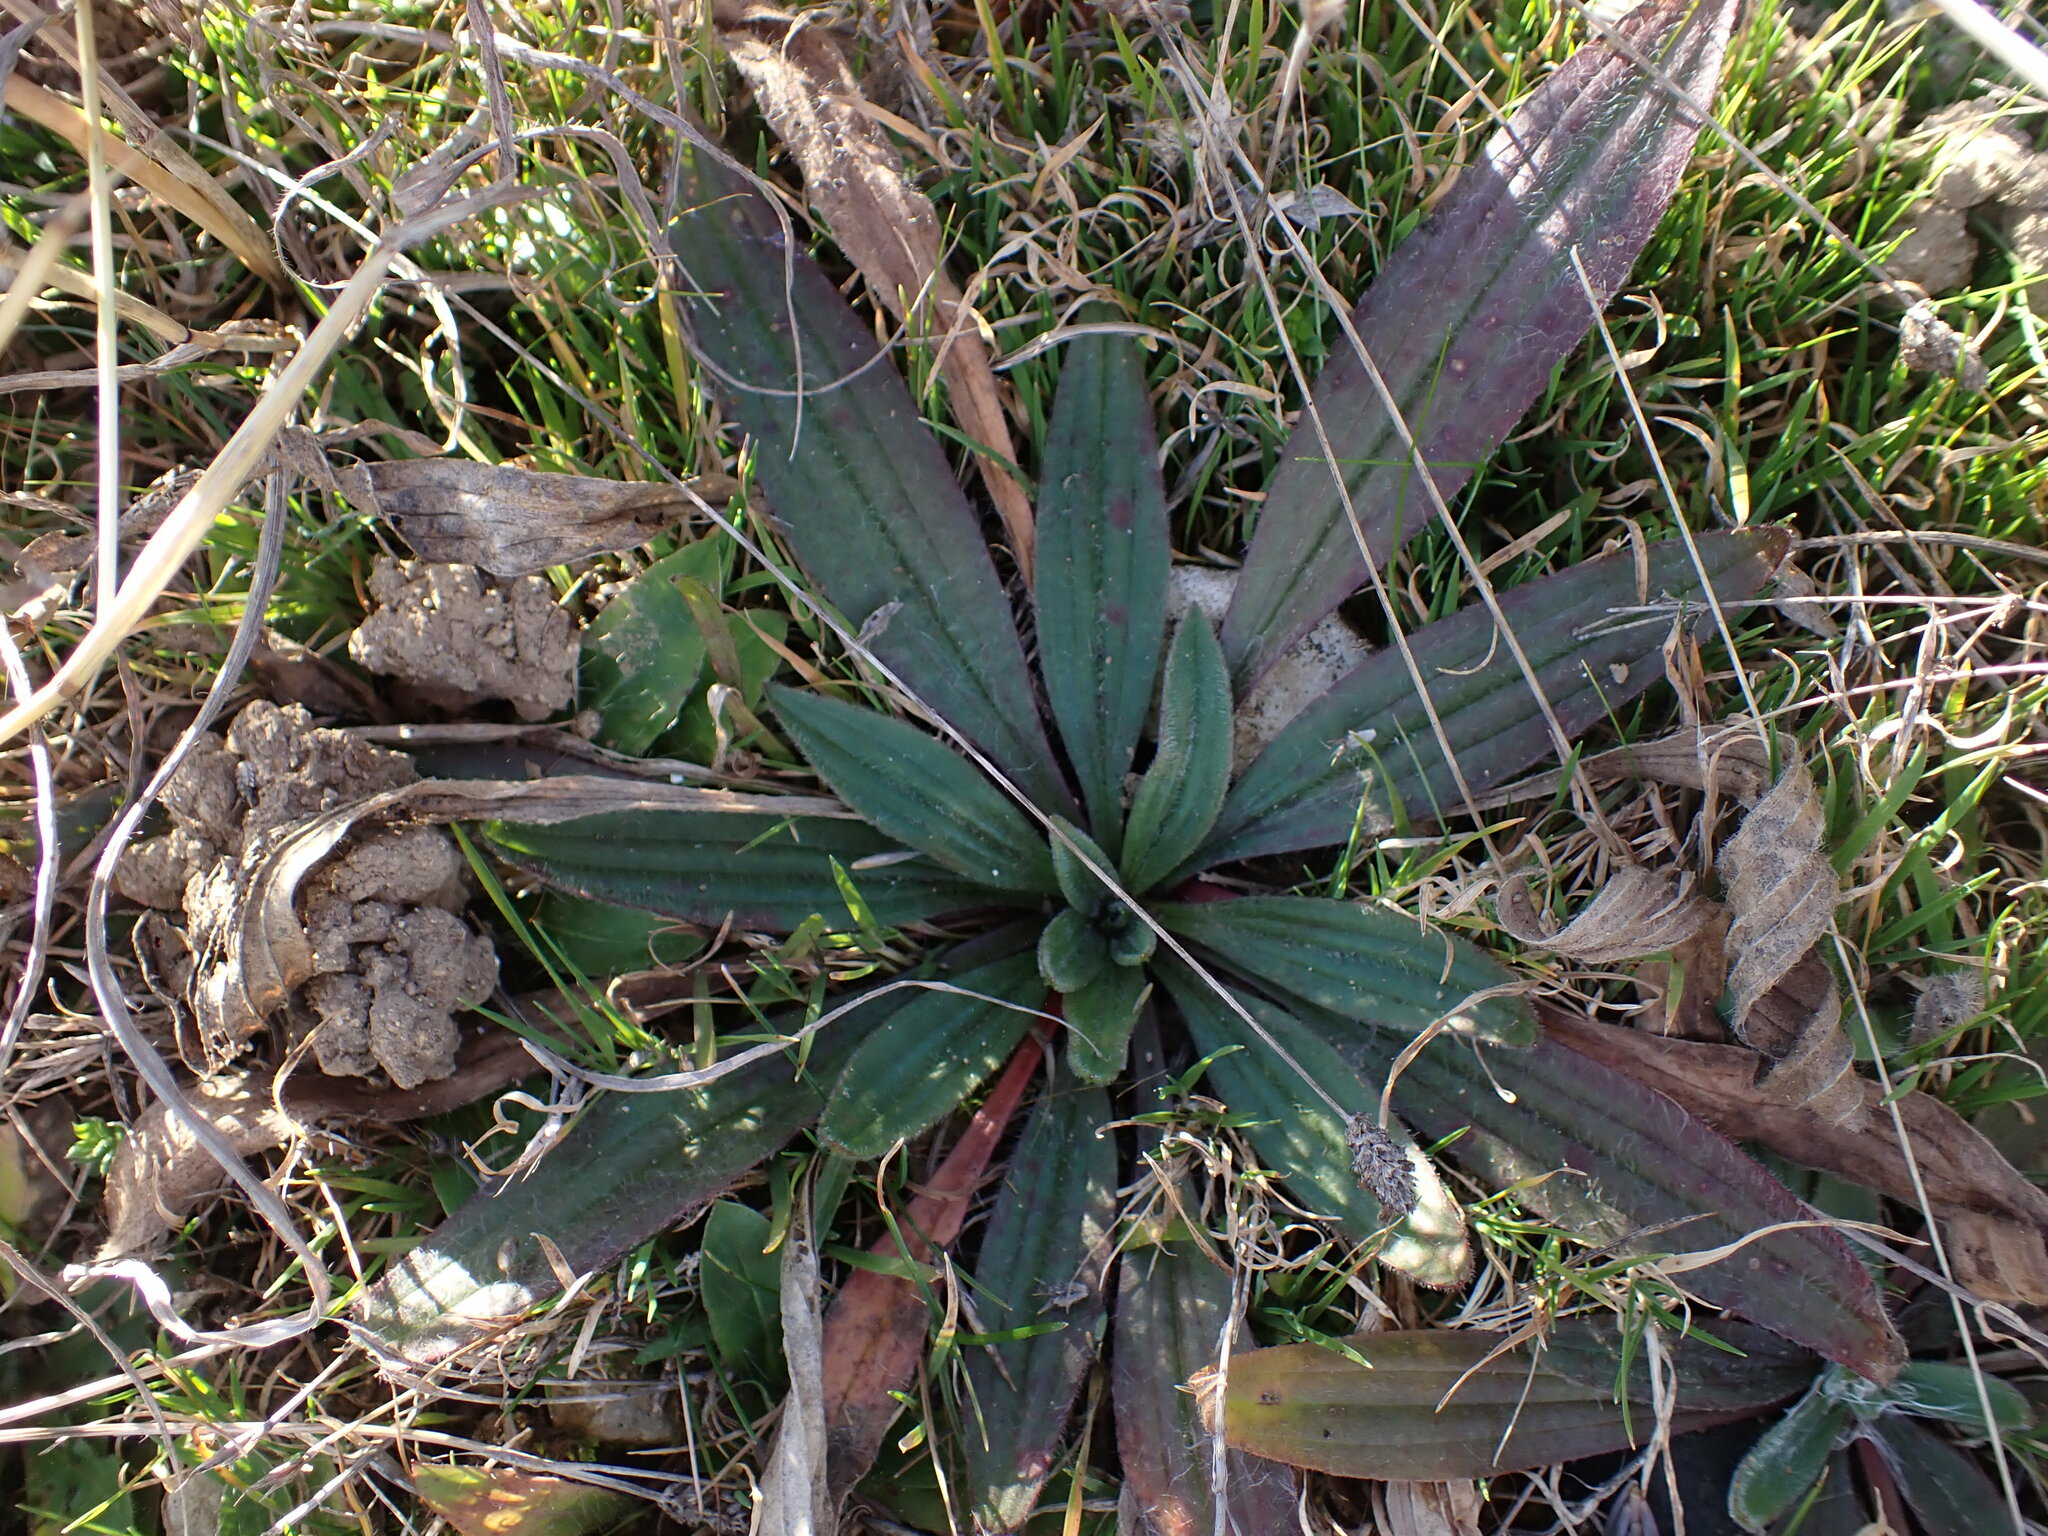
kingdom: Plantae
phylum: Tracheophyta
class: Magnoliopsida
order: Lamiales
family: Plantaginaceae
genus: Plantago
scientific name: Plantago lanceolata
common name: Ribwort plantain
